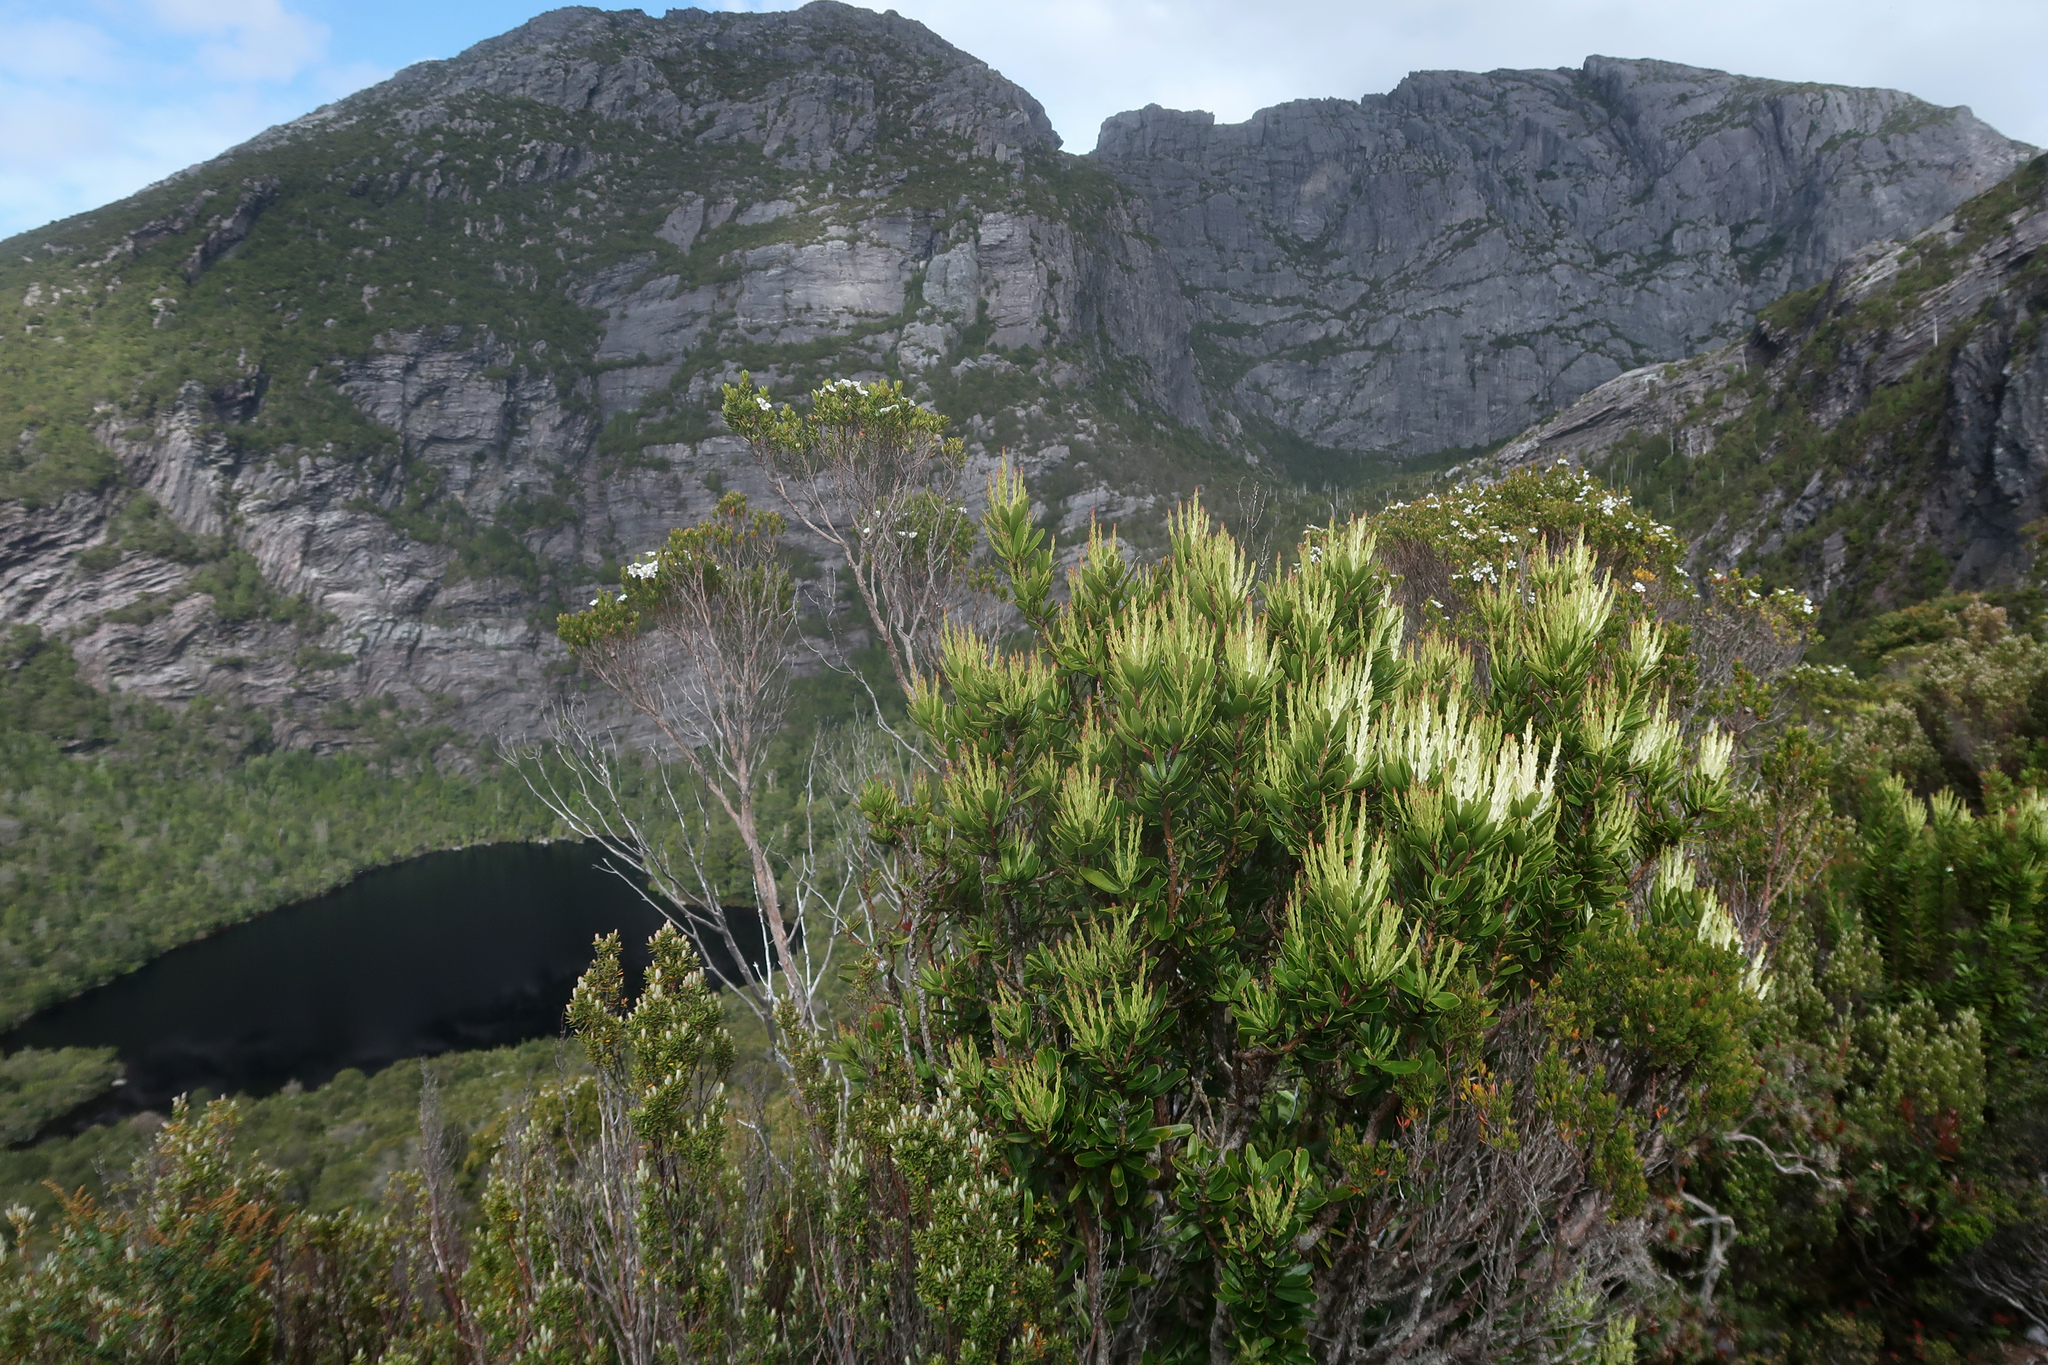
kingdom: Plantae
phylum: Tracheophyta
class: Magnoliopsida
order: Proteales
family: Proteaceae
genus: Agastachys
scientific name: Agastachys odorata
